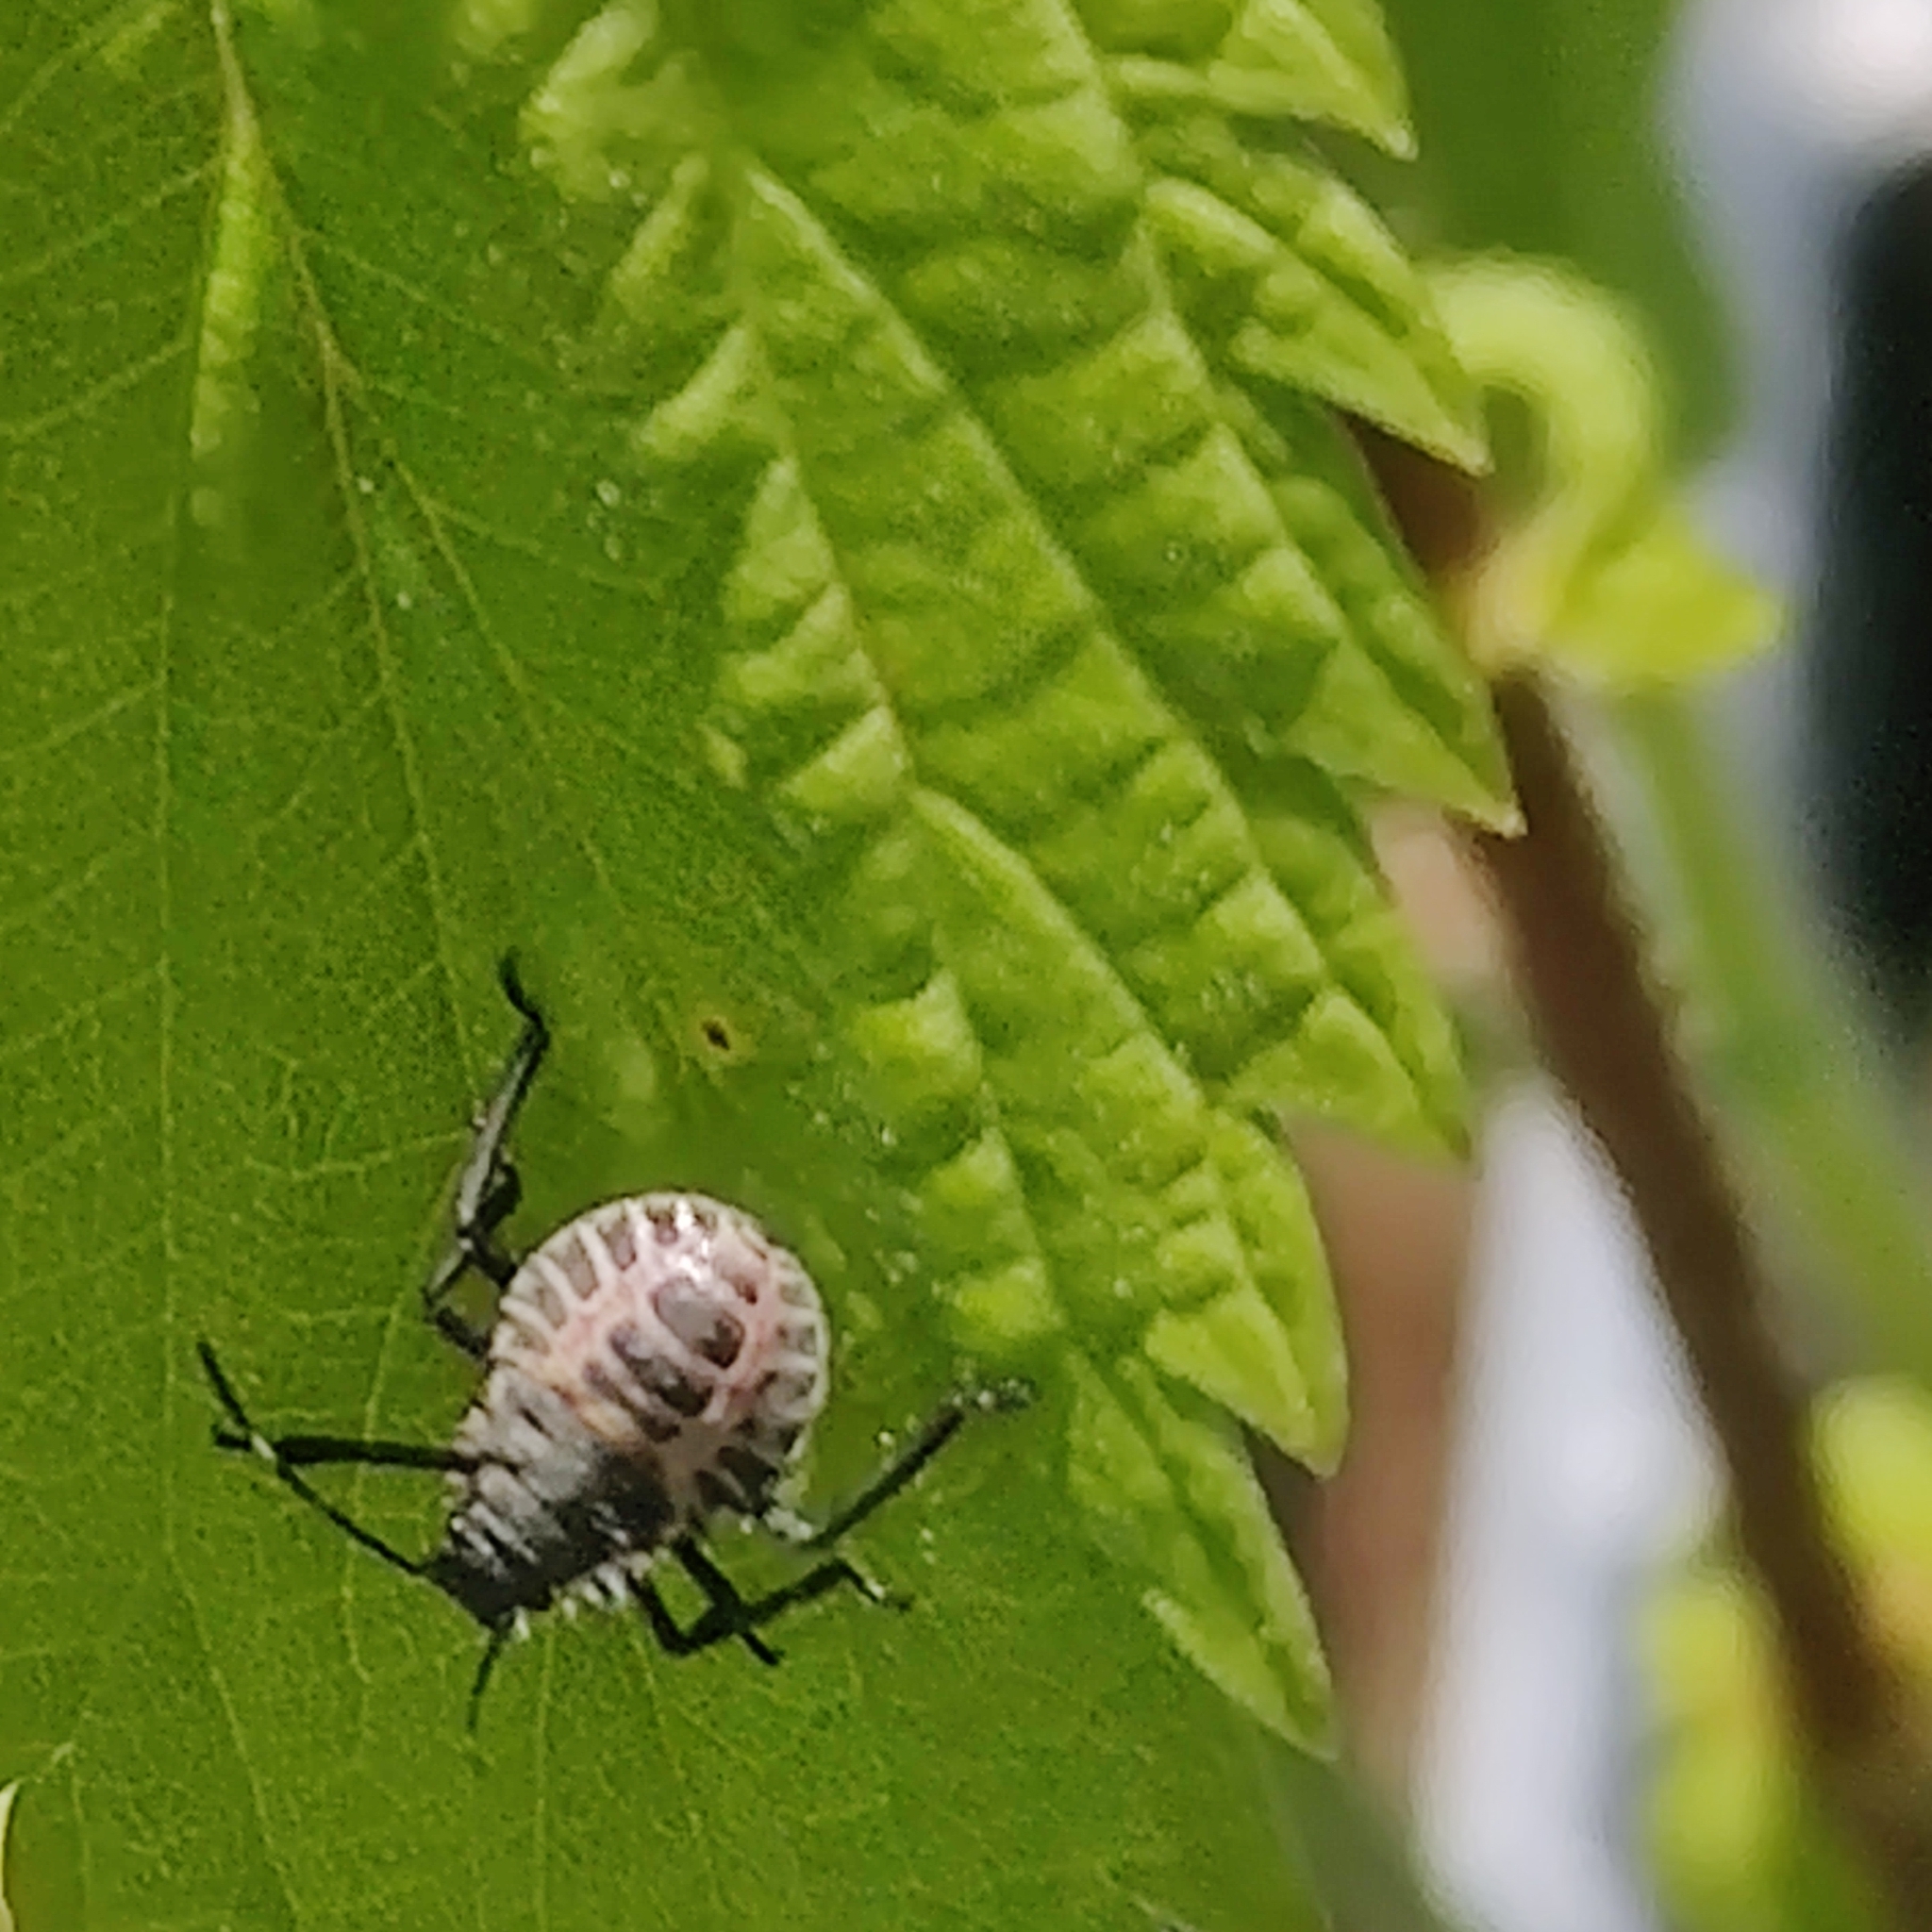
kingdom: Animalia
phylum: Arthropoda
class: Insecta
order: Hemiptera
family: Pentatomidae
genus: Halyomorpha
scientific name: Halyomorpha halys
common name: Brown marmorated stink bug
